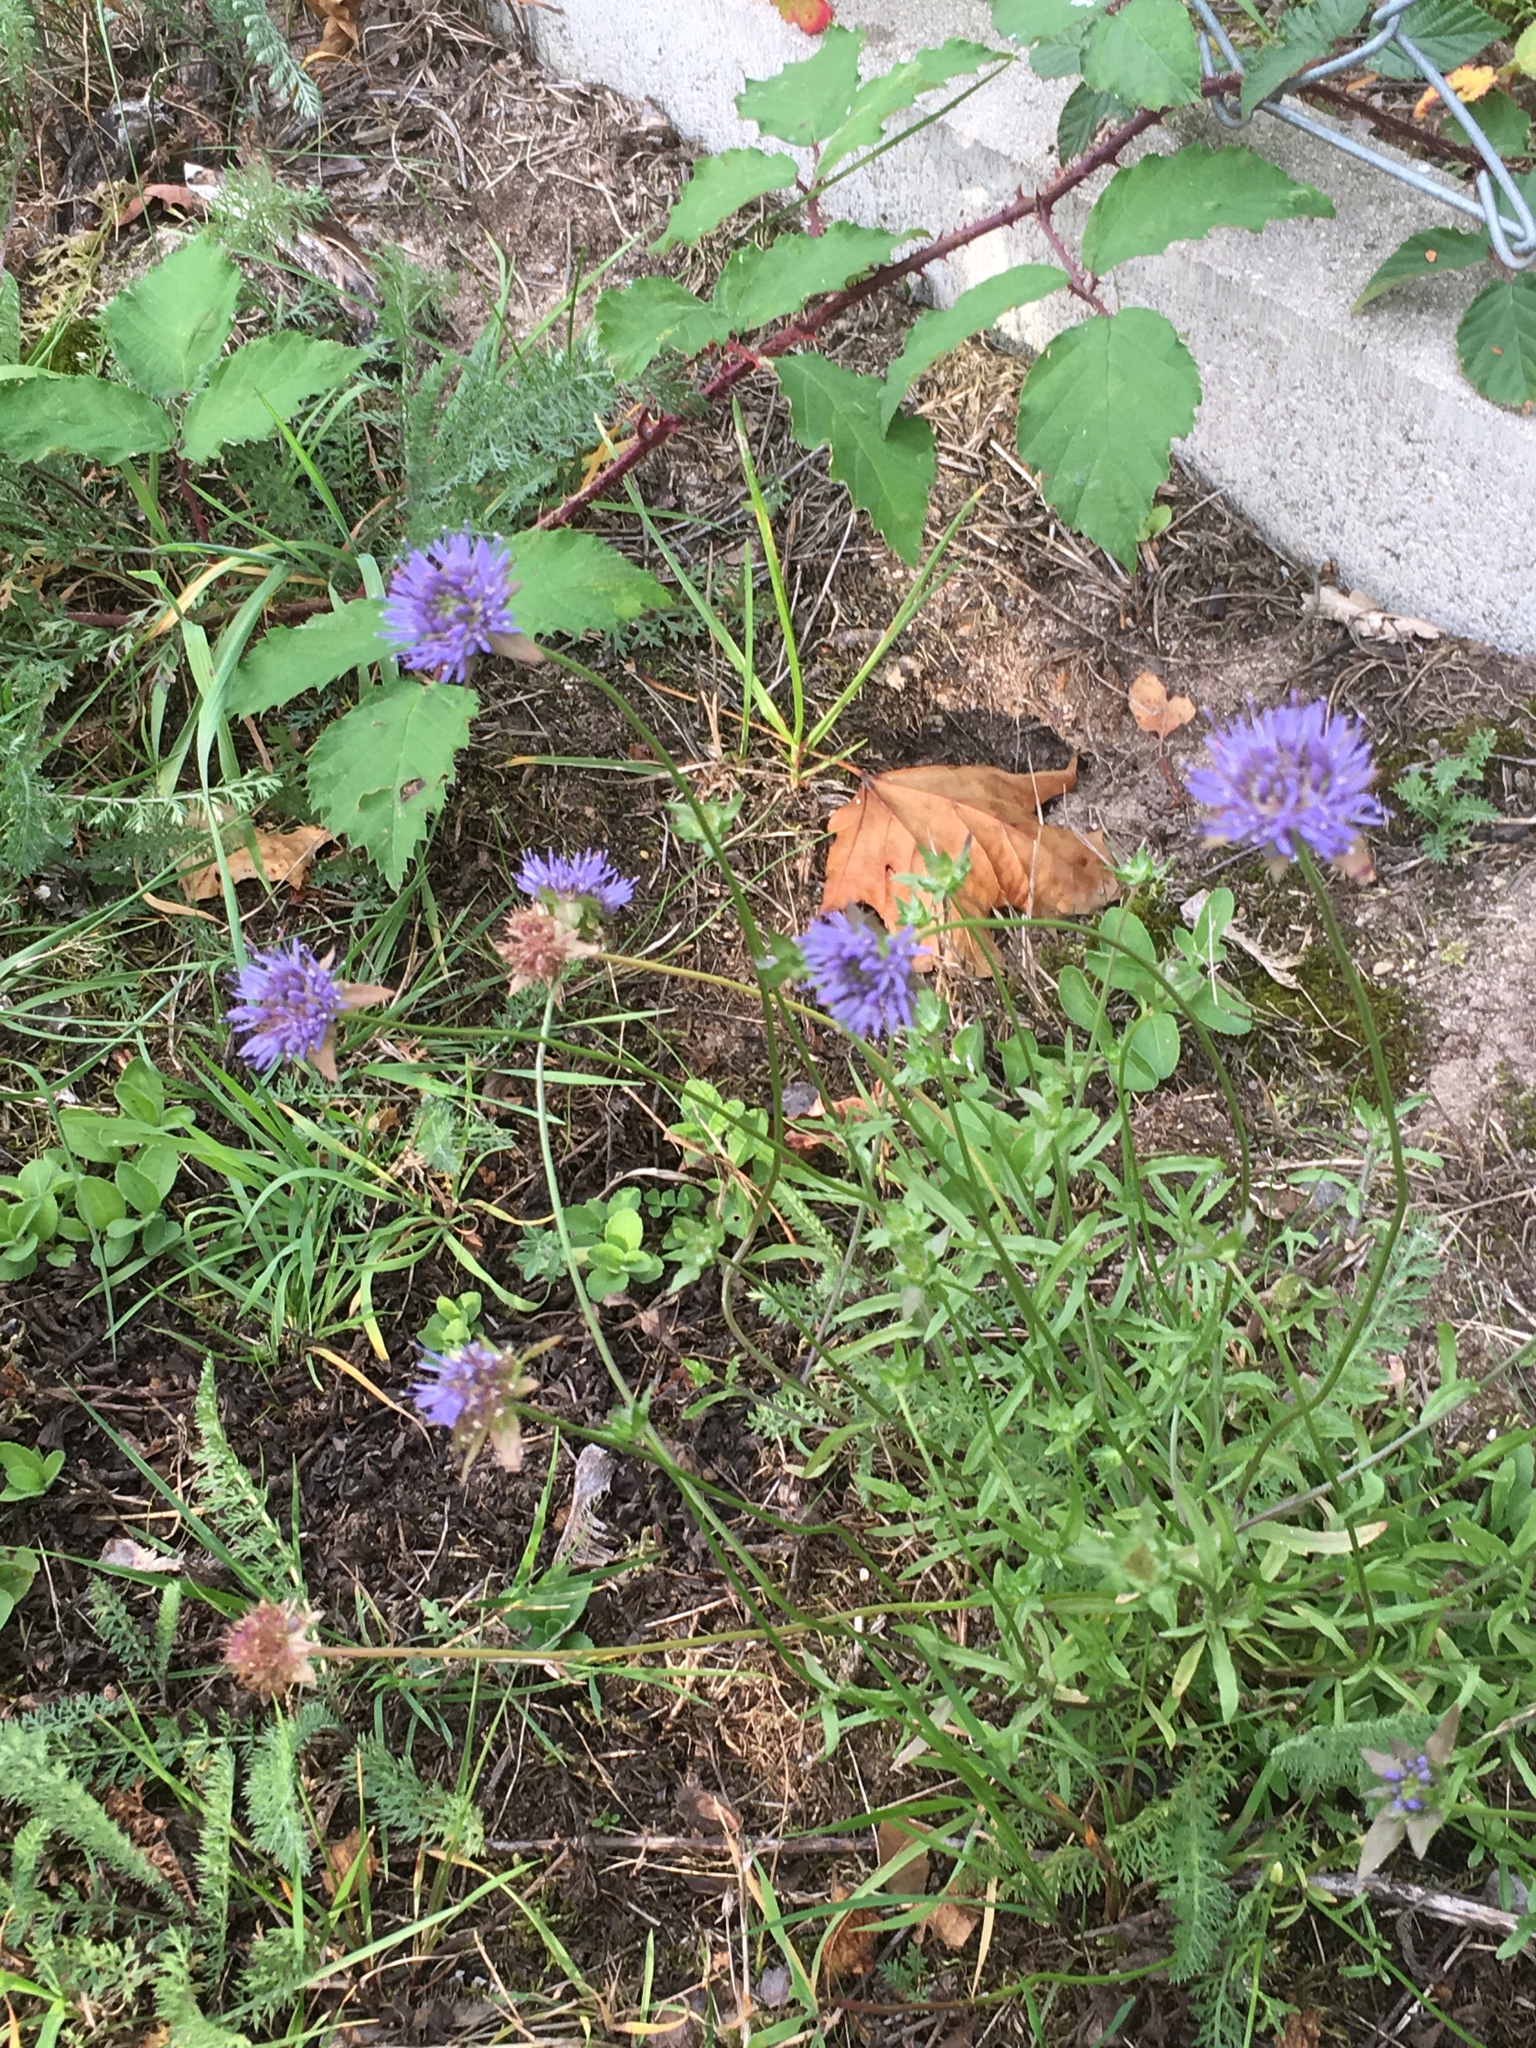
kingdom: Plantae
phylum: Tracheophyta
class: Magnoliopsida
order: Asterales
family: Campanulaceae
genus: Jasione
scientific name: Jasione montana
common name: Sheep's-bit
